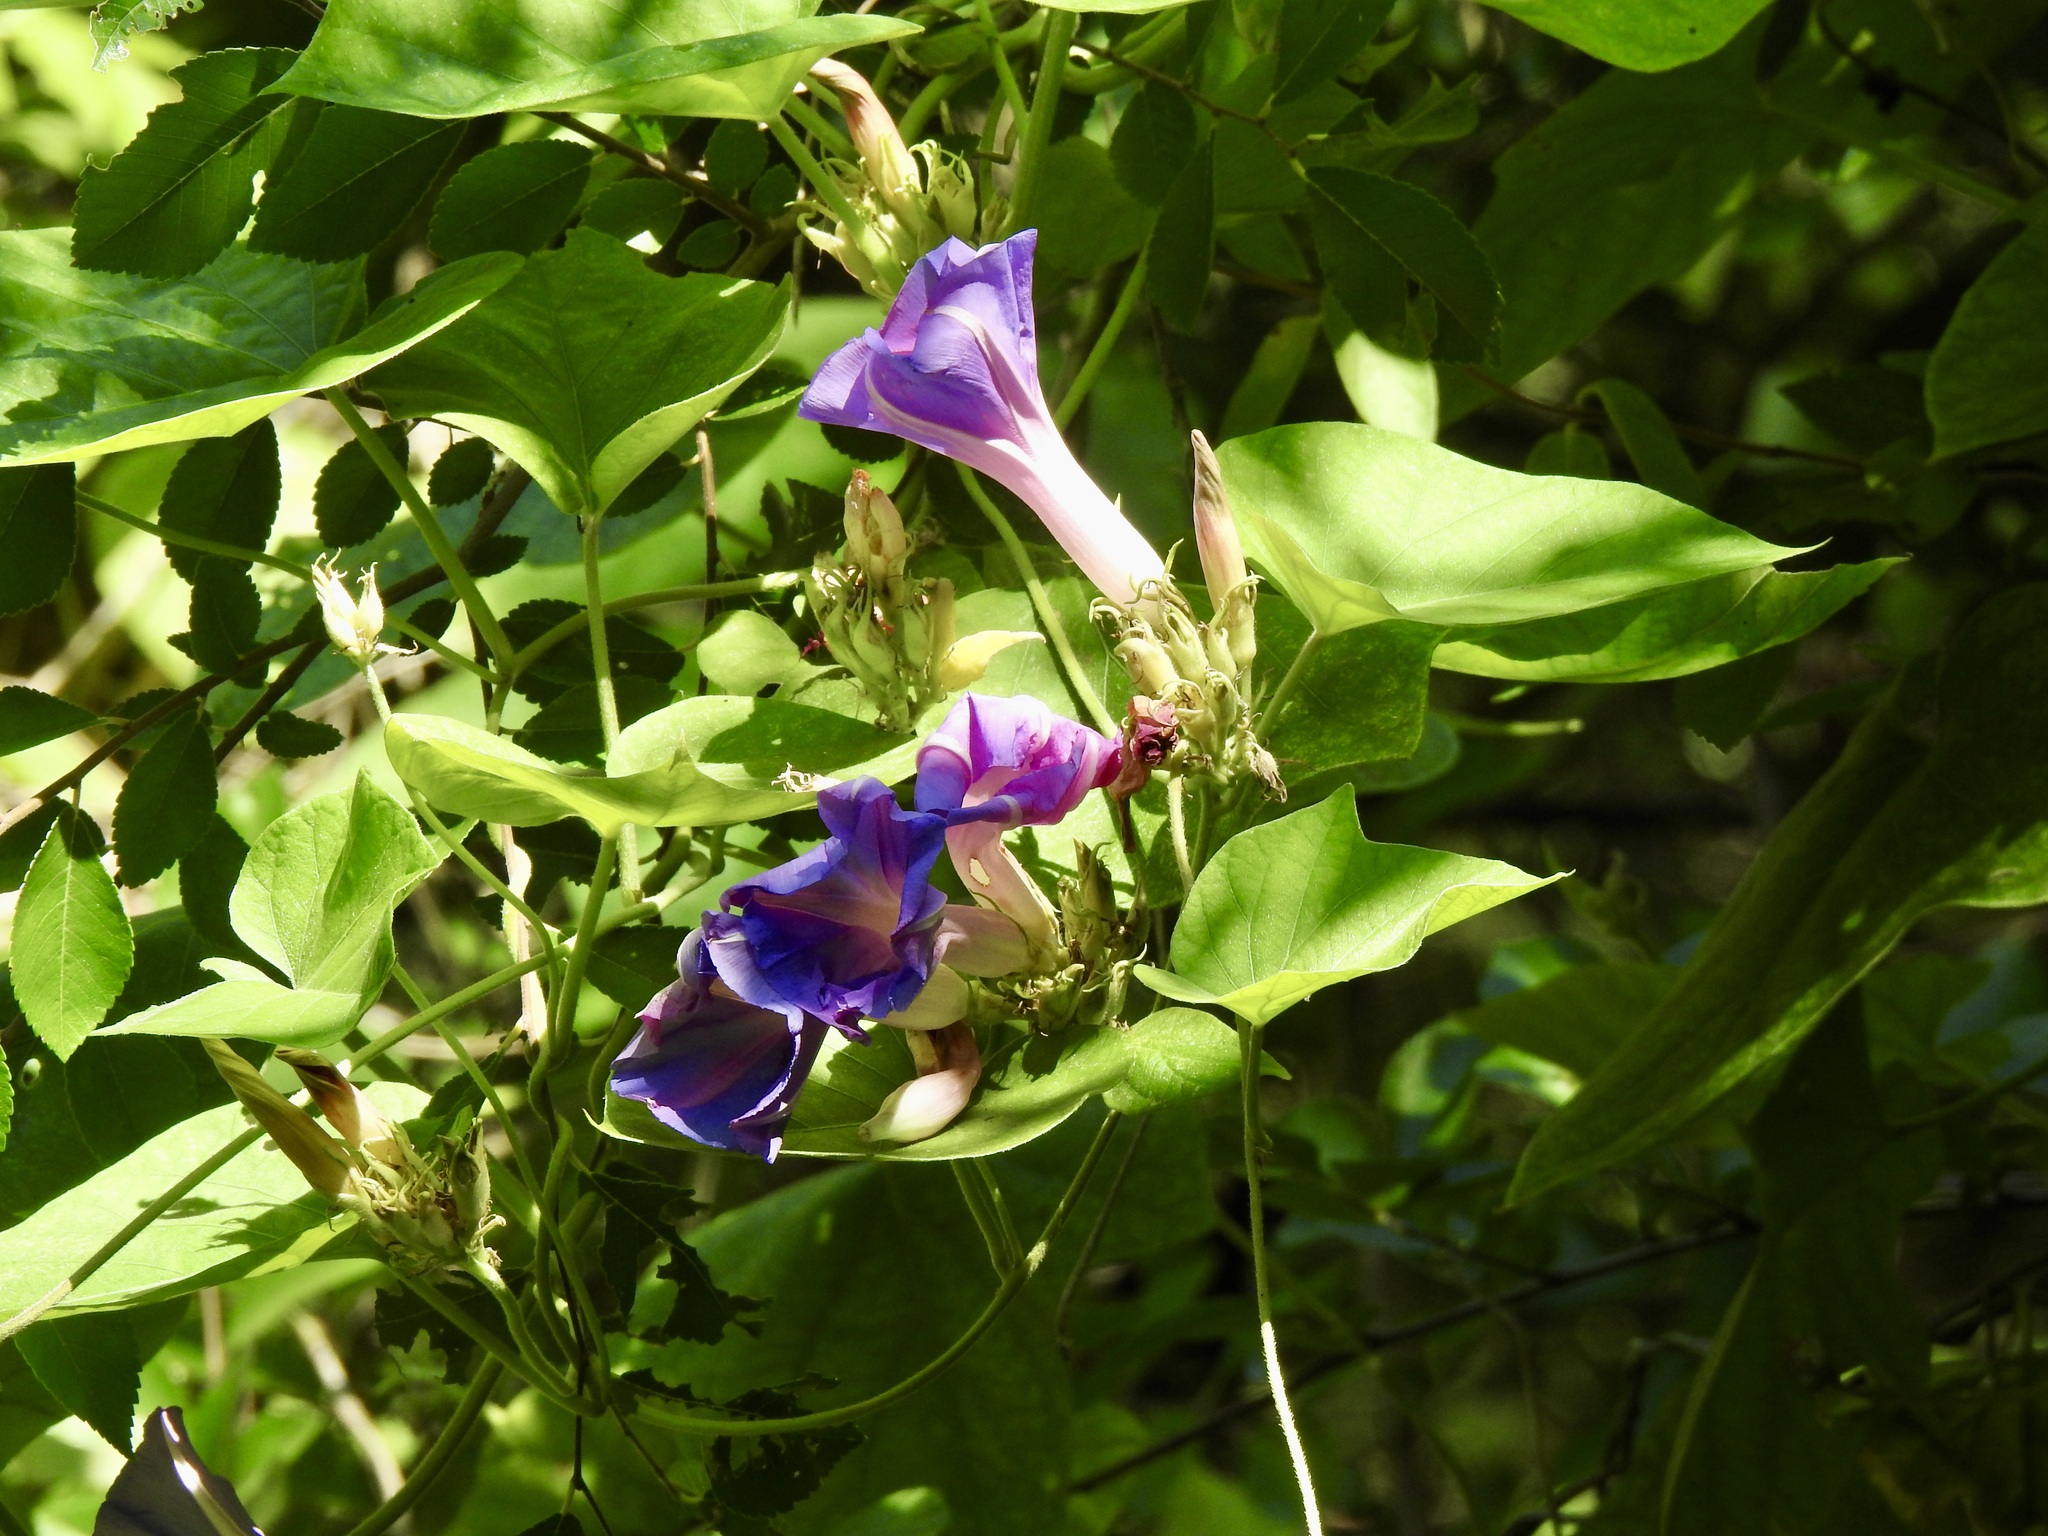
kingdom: Plantae
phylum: Tracheophyta
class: Magnoliopsida
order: Solanales
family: Convolvulaceae
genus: Ipomoea
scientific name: Ipomoea indica
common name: Blue dawnflower
